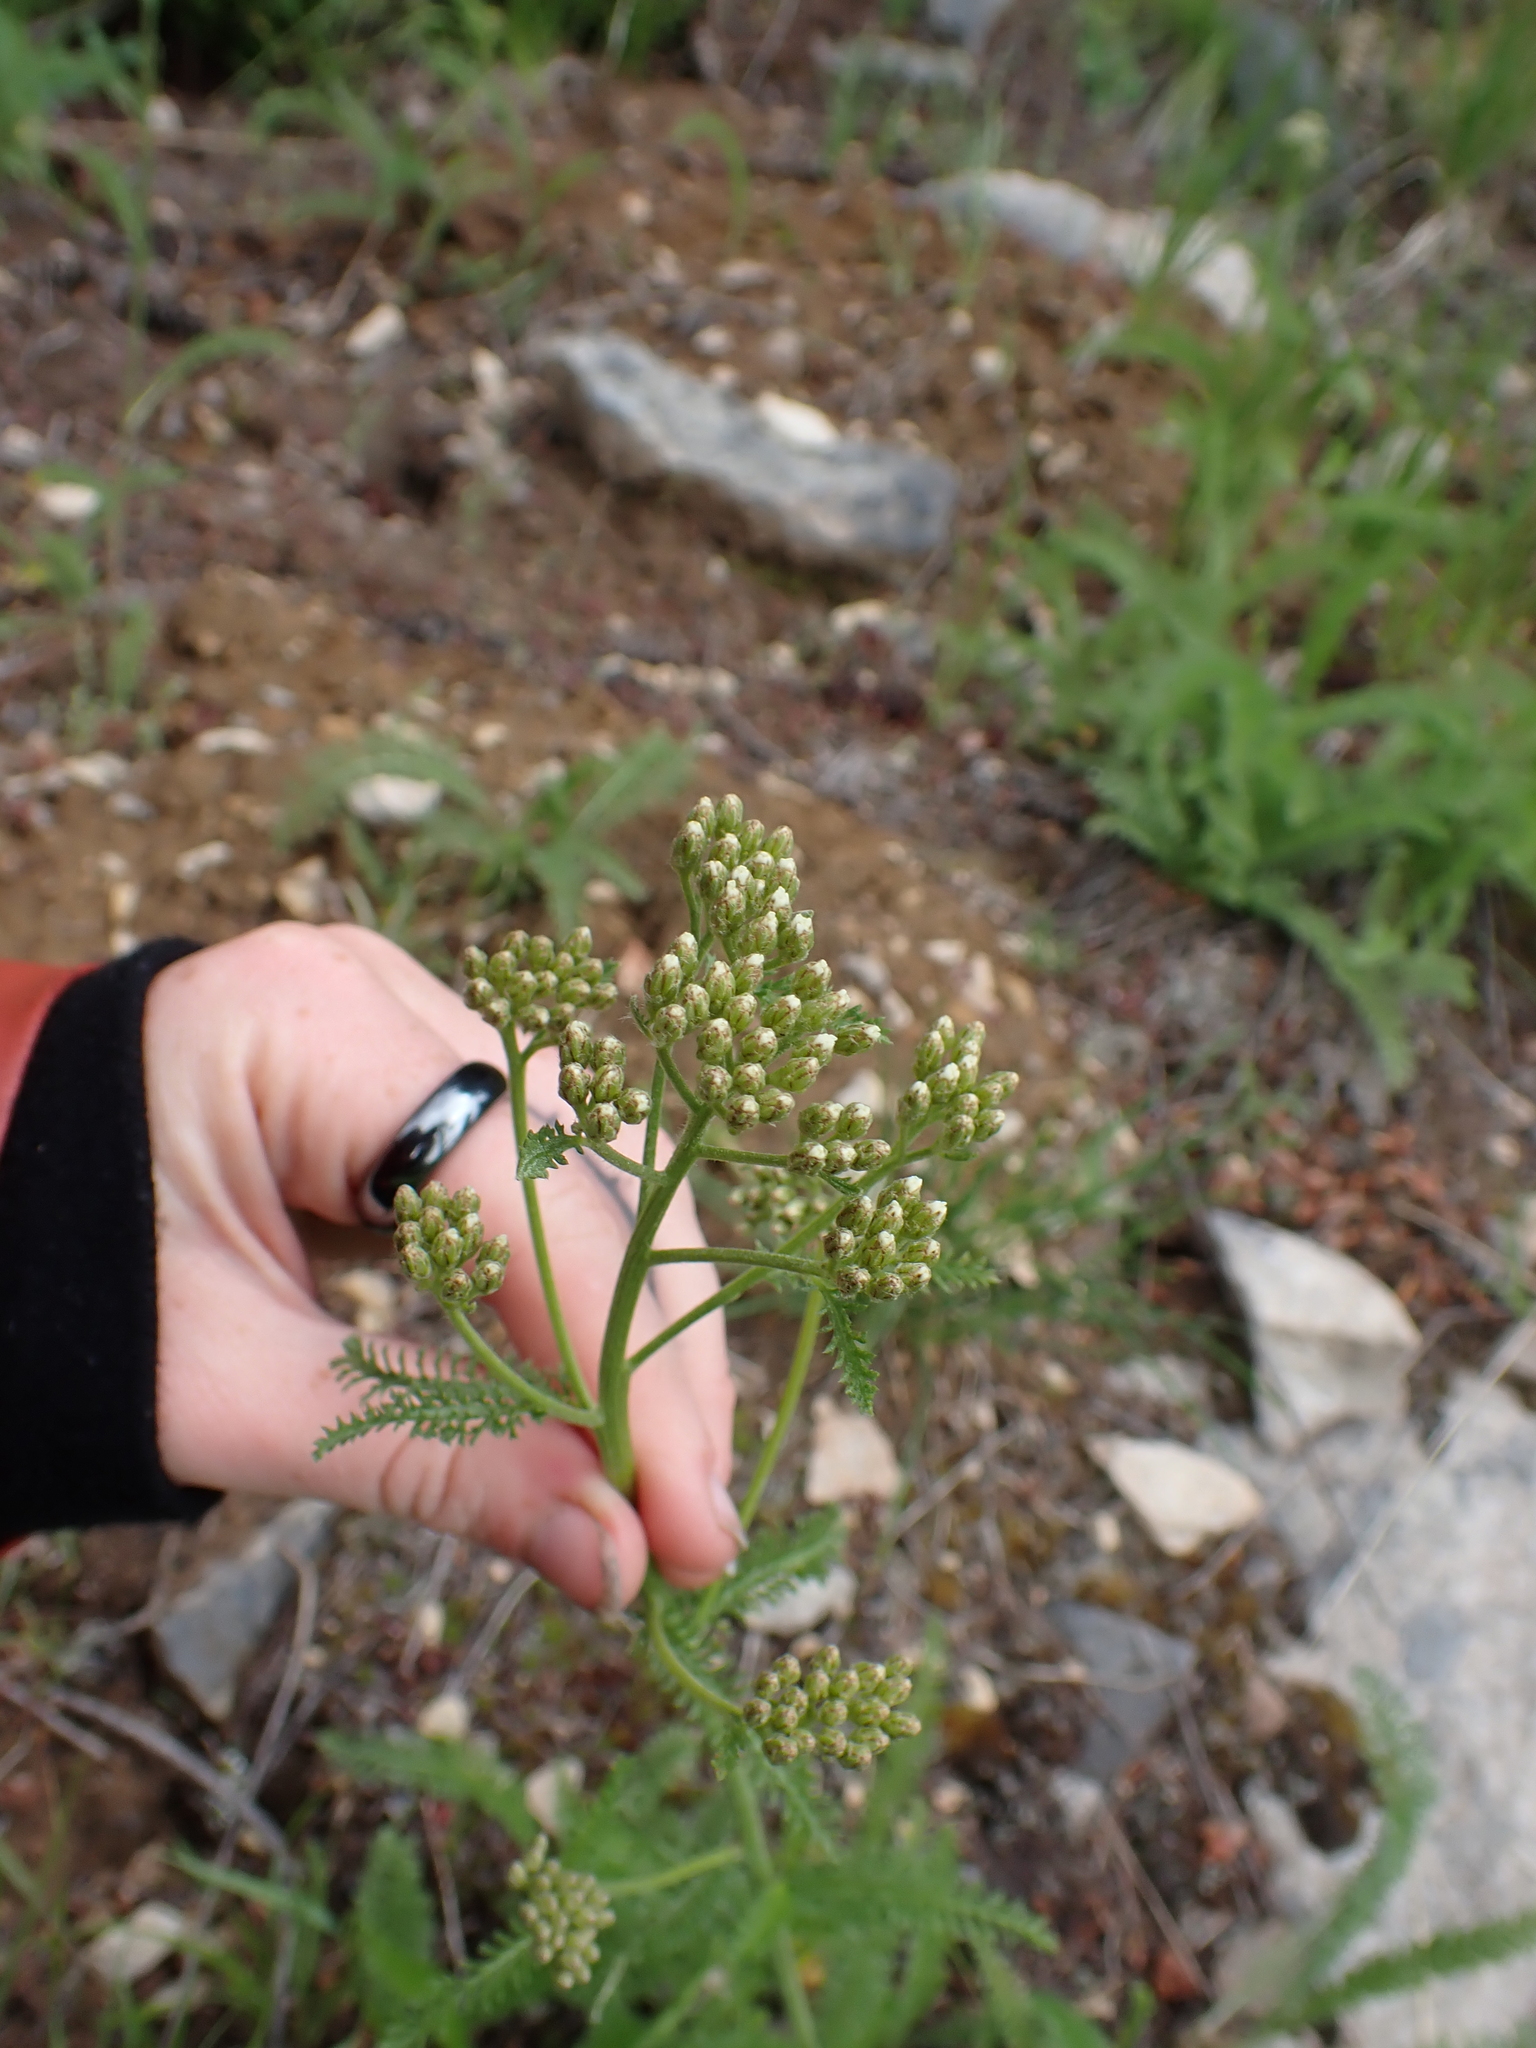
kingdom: Plantae
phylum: Tracheophyta
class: Magnoliopsida
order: Asterales
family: Asteraceae
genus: Achillea
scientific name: Achillea millefolium
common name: Yarrow
